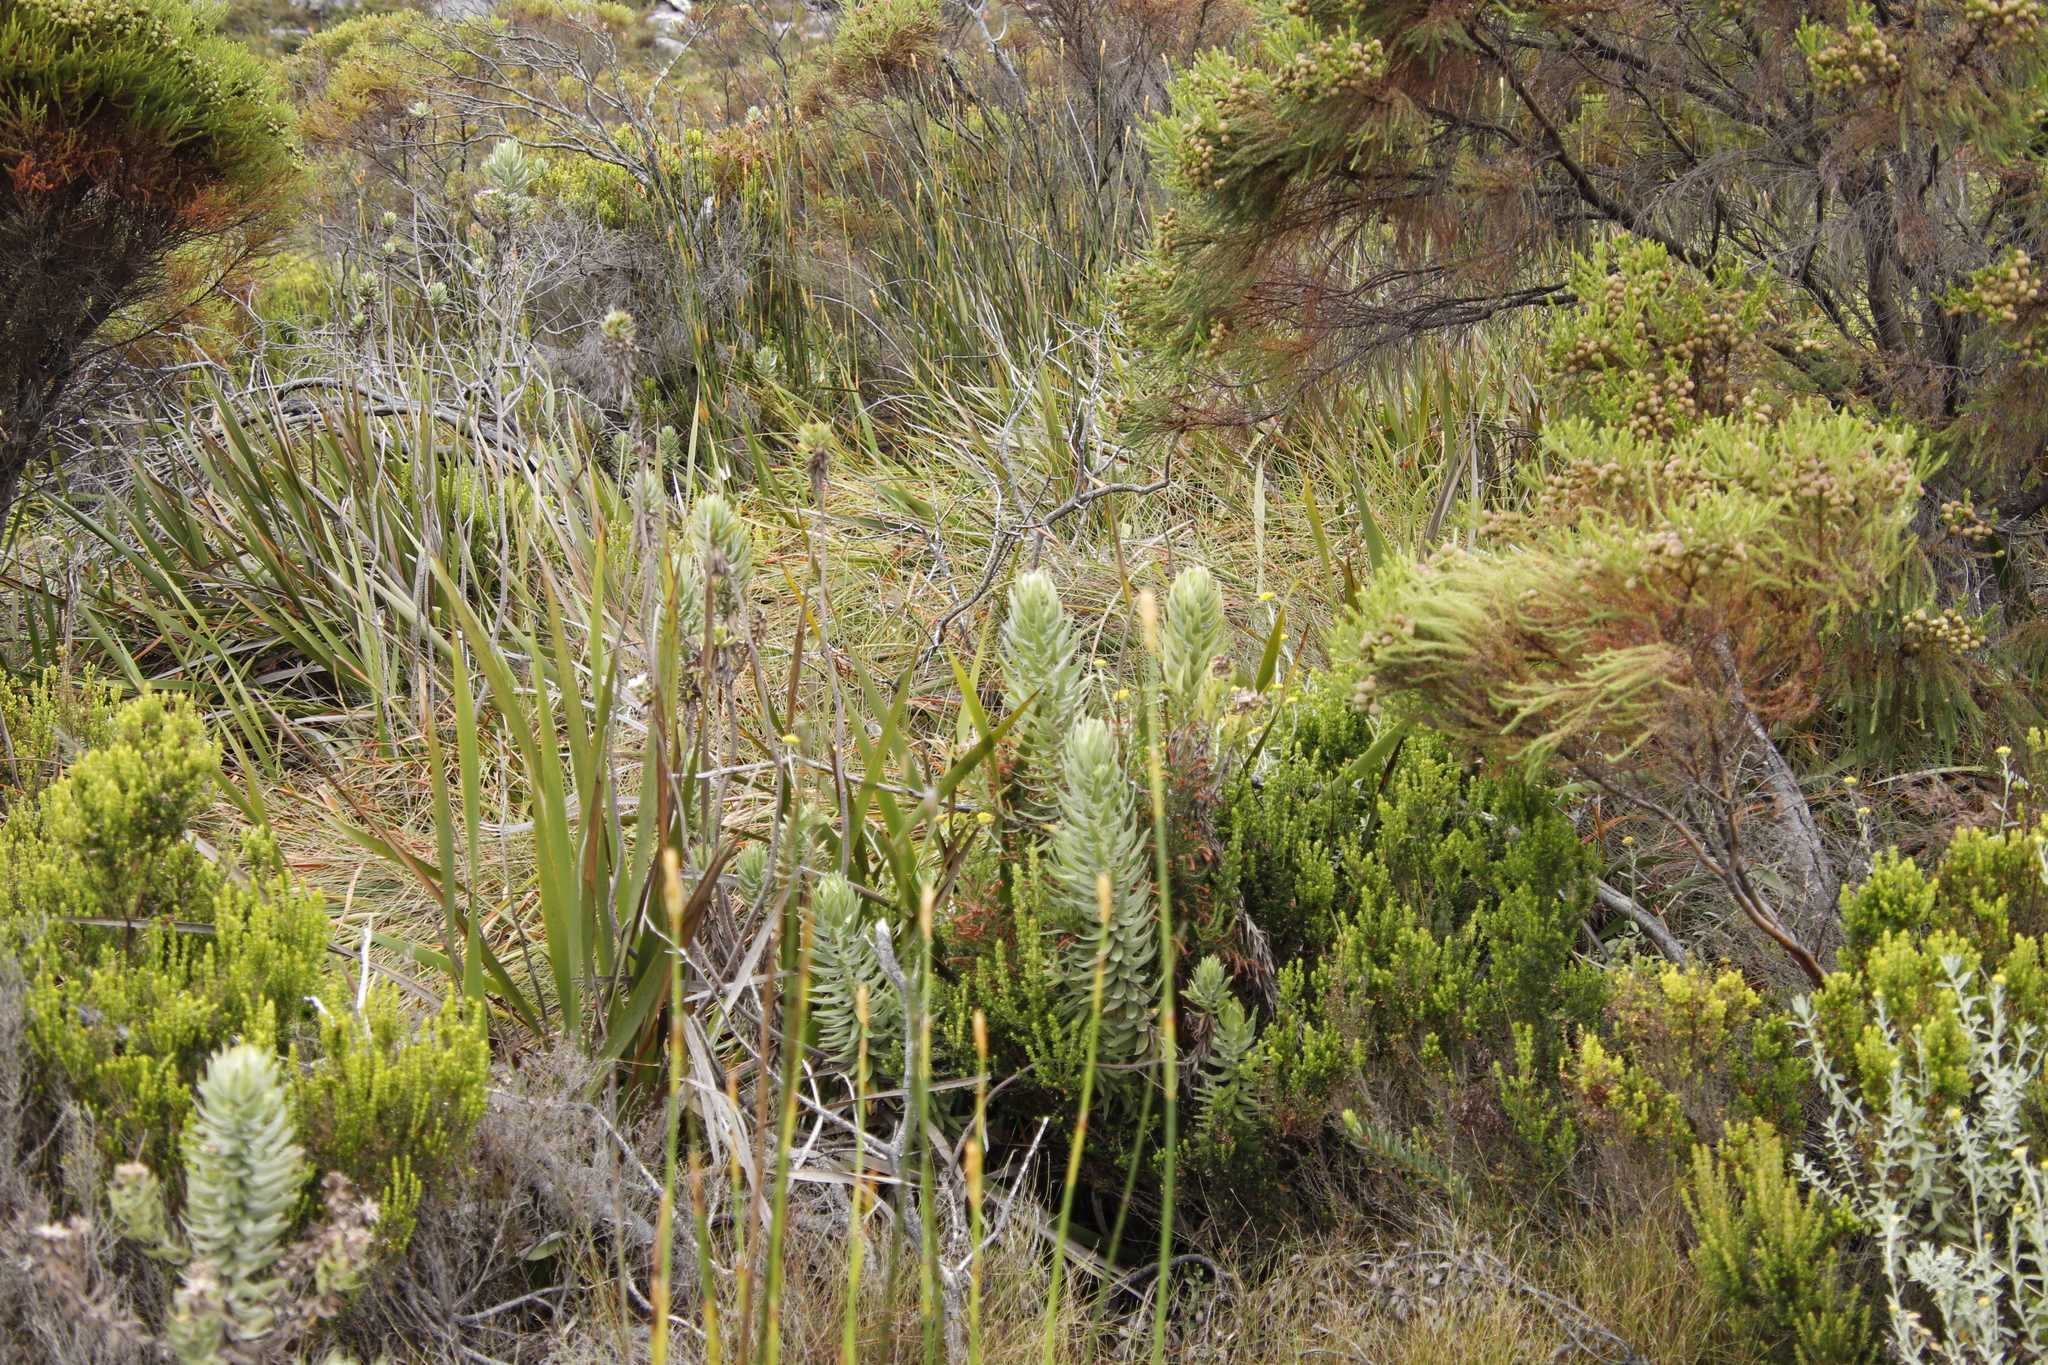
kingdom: Plantae
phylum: Tracheophyta
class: Magnoliopsida
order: Asterales
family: Asteraceae
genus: Osmitopsis
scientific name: Osmitopsis asteriscoides
